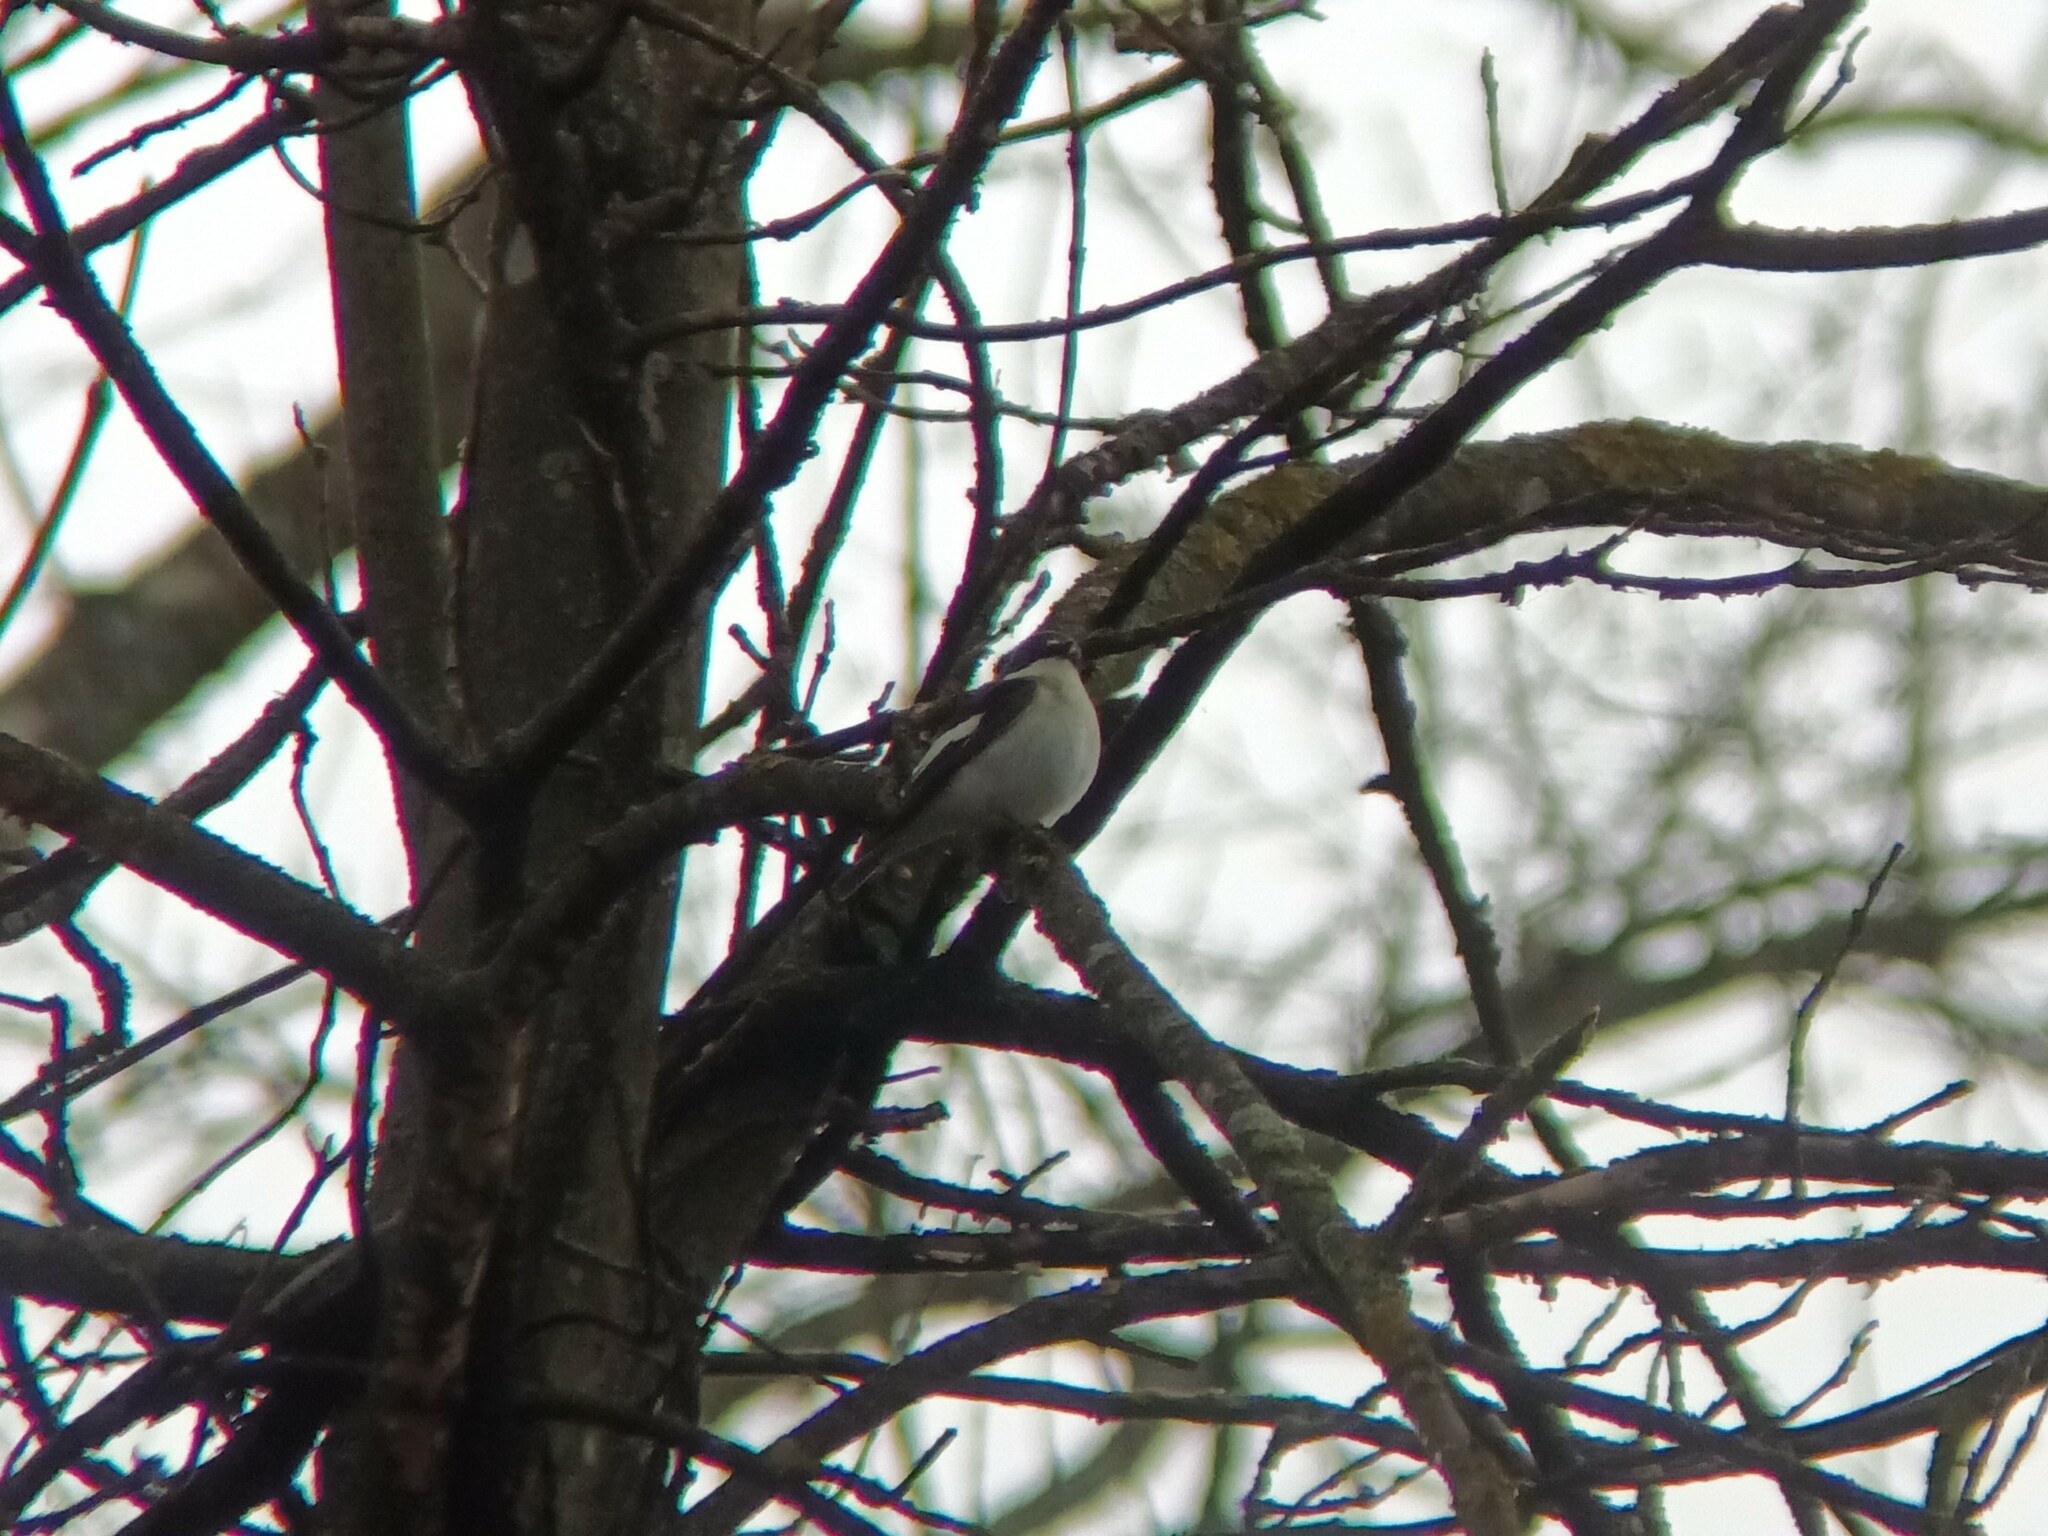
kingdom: Animalia
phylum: Chordata
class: Aves
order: Passeriformes
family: Muscicapidae
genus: Ficedula
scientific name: Ficedula hypoleuca
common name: European pied flycatcher
